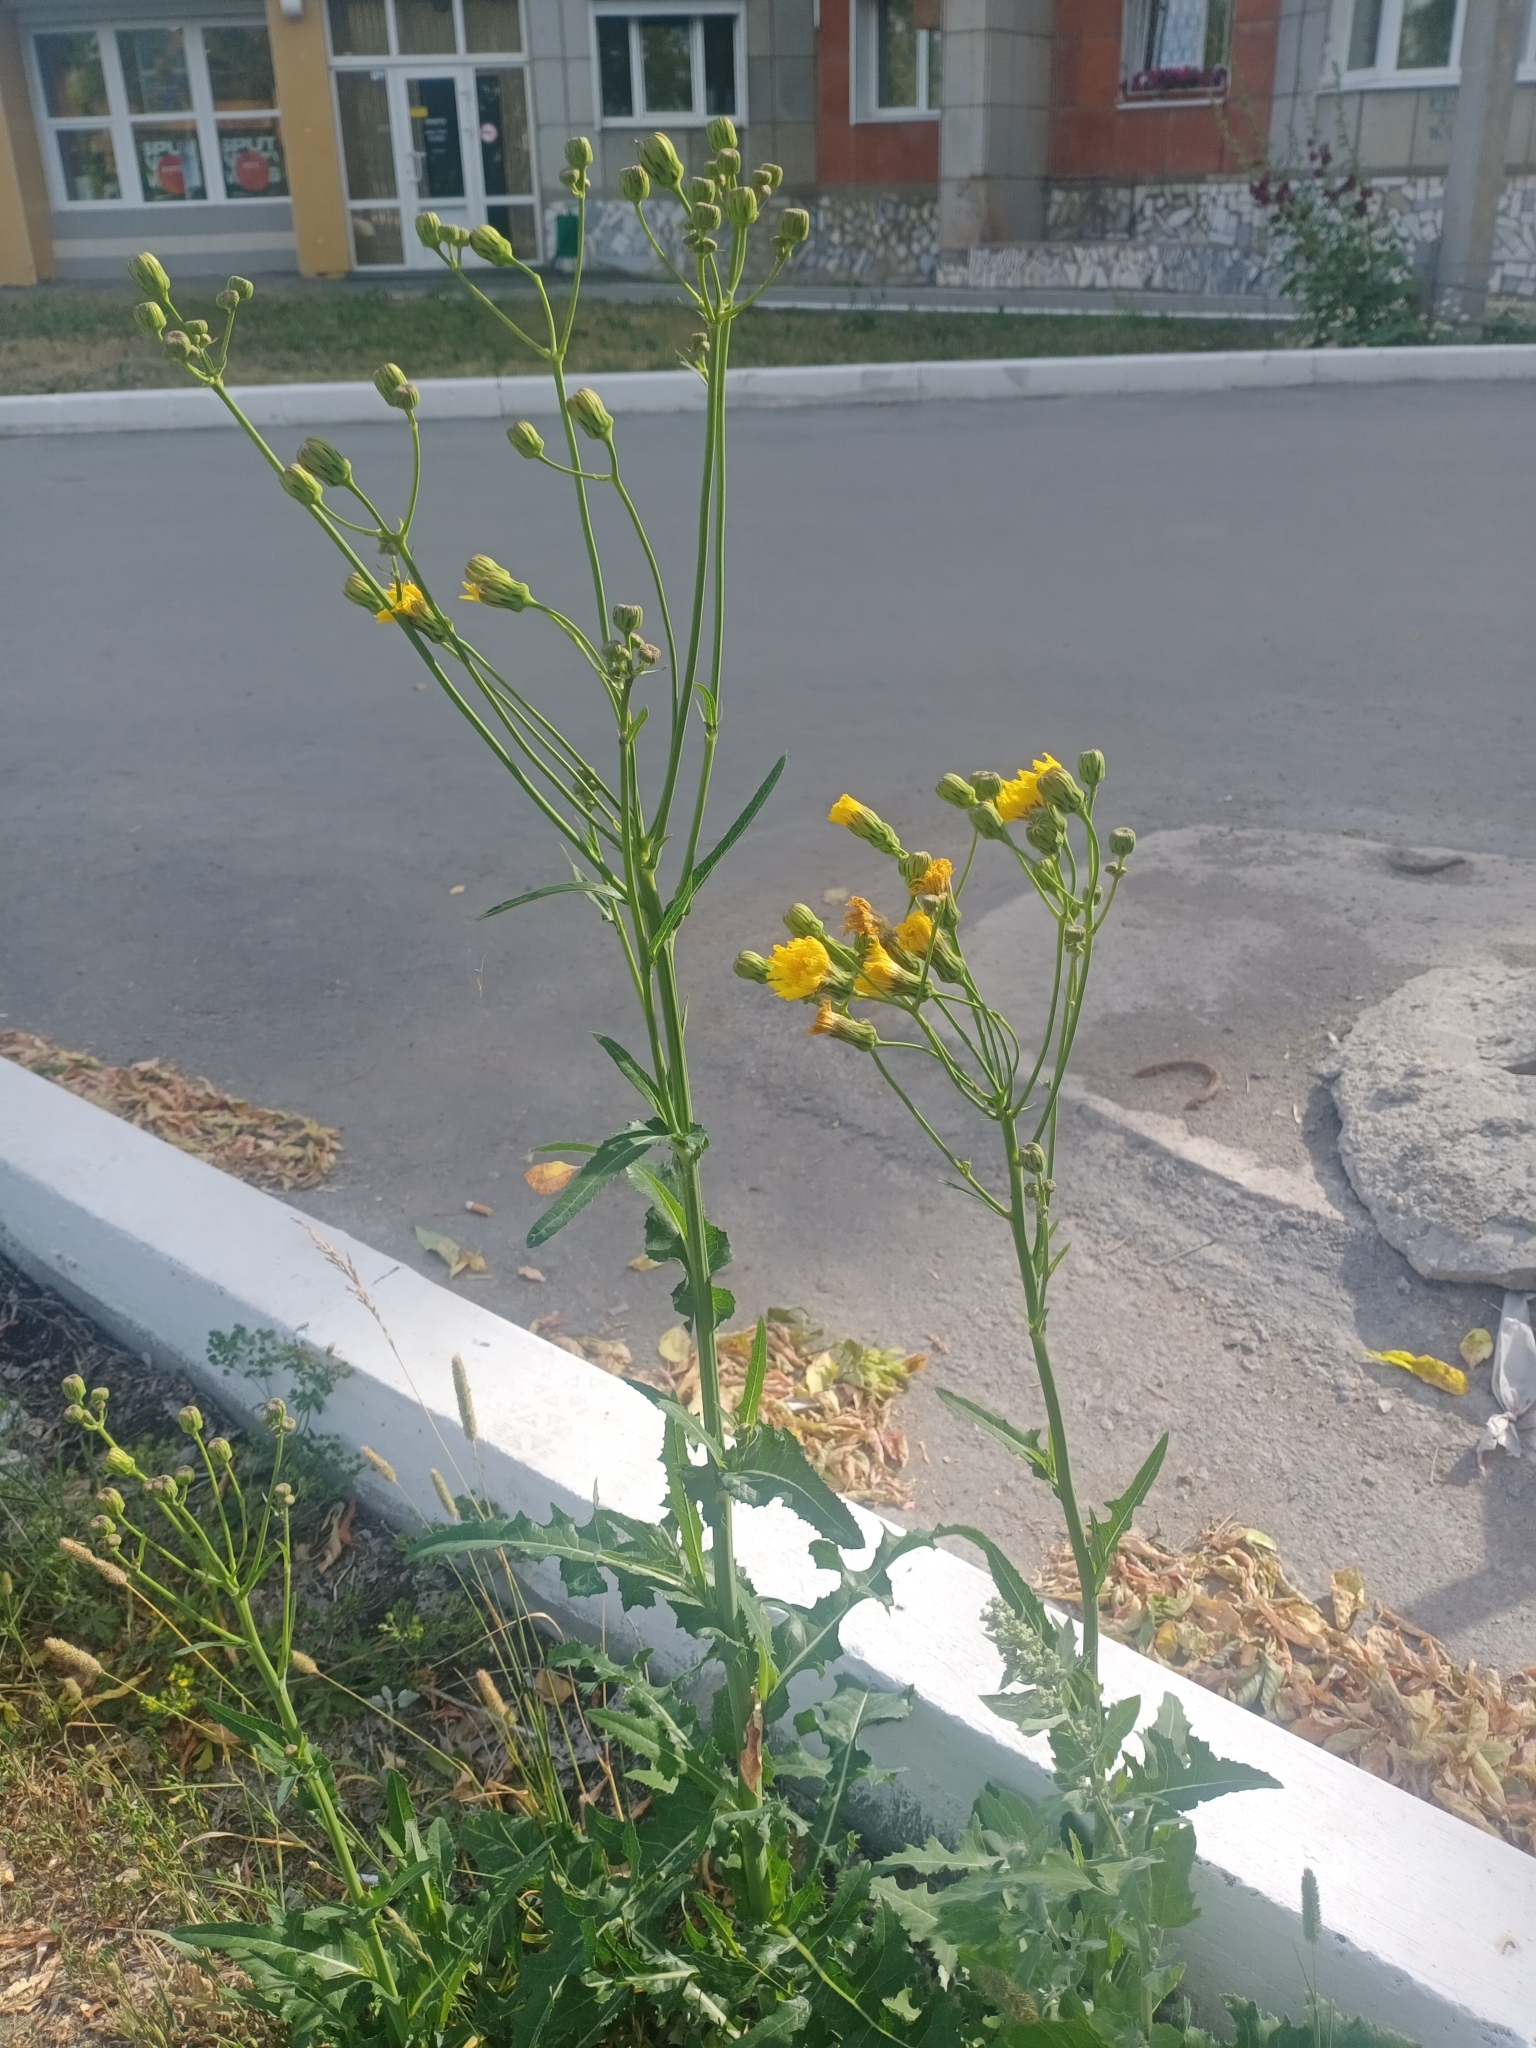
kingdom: Plantae
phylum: Tracheophyta
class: Magnoliopsida
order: Asterales
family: Asteraceae
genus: Sonchus
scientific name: Sonchus arvensis
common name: Perennial sow-thistle
